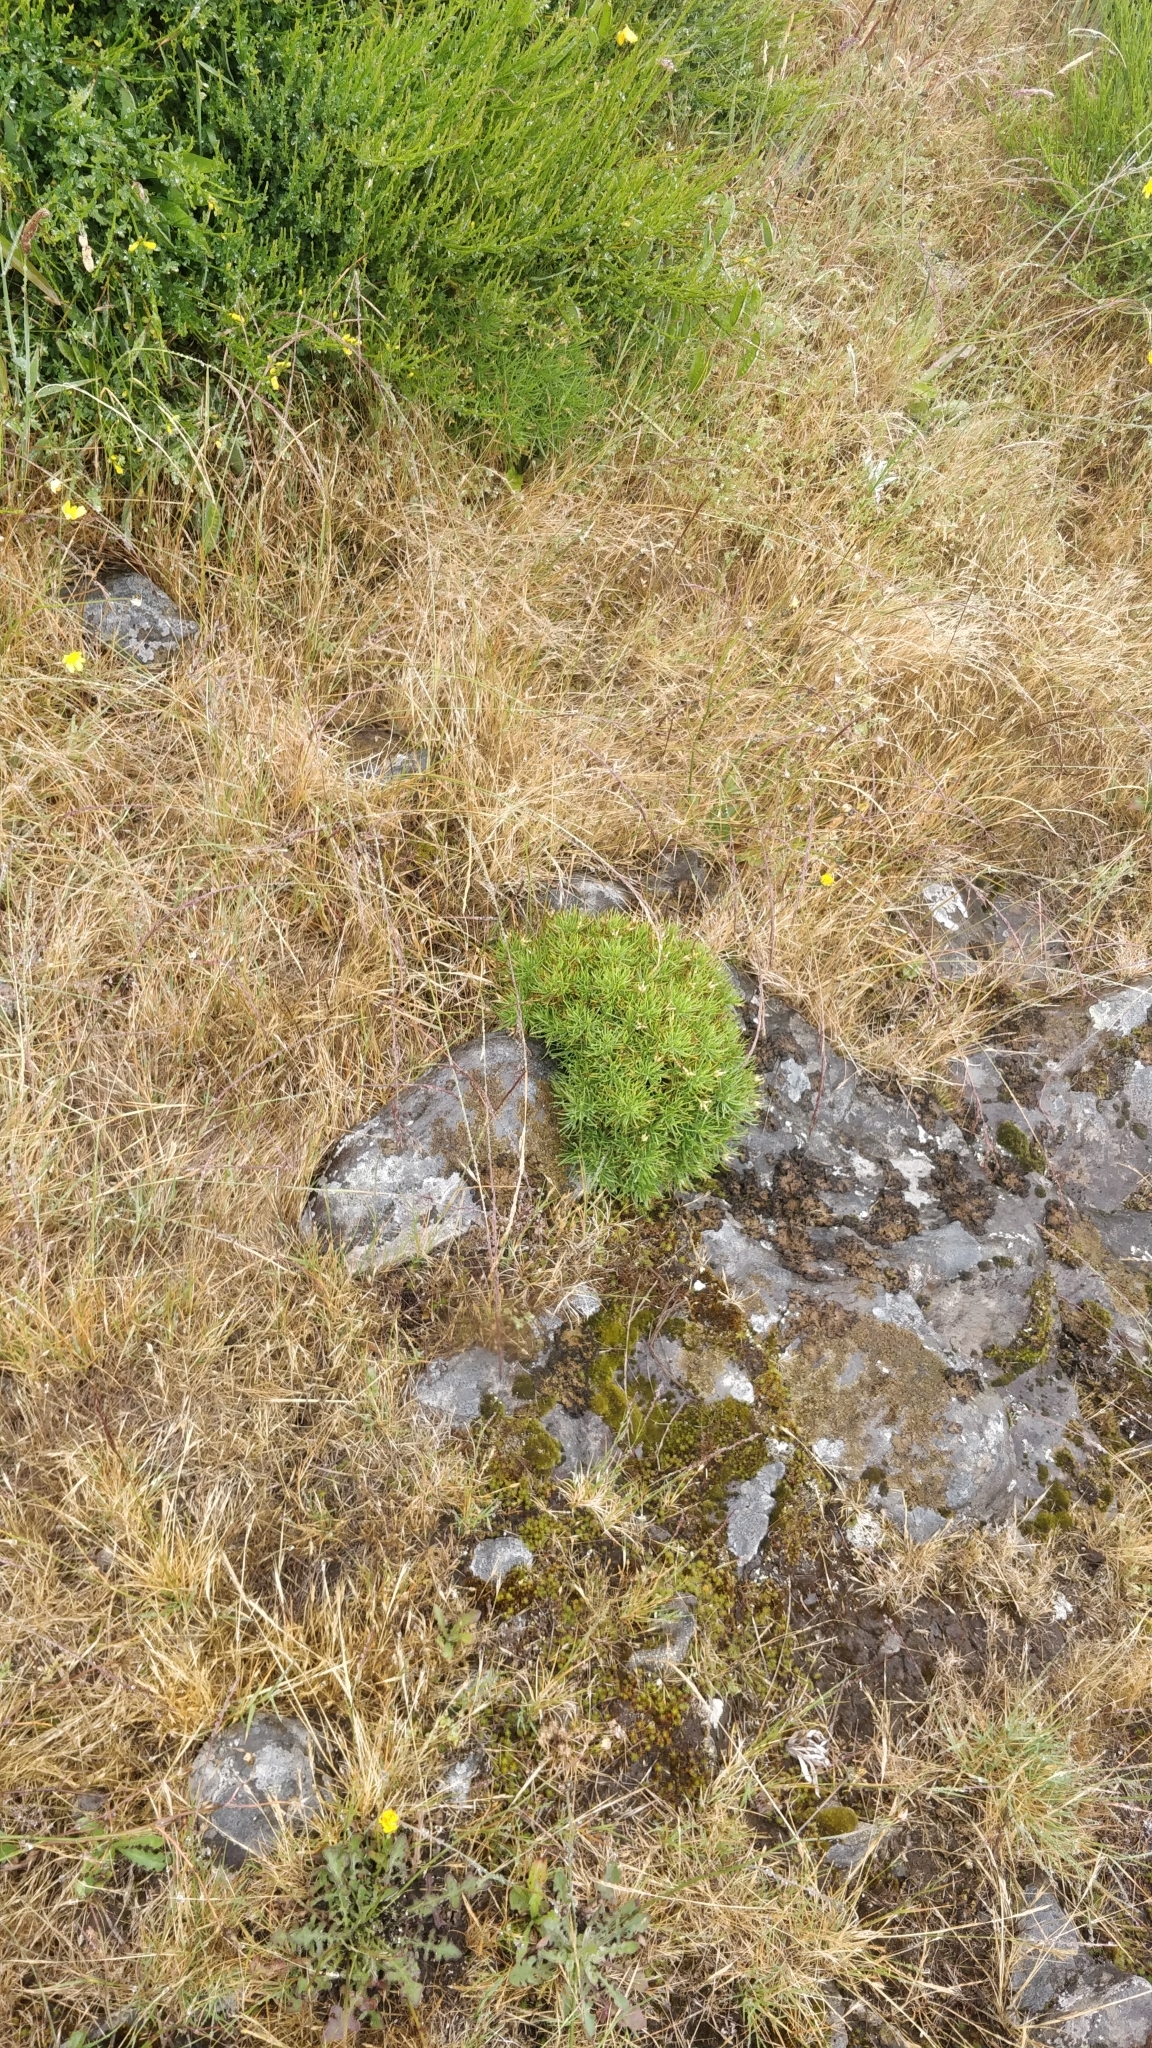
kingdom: Plantae
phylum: Tracheophyta
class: Magnoliopsida
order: Lamiales
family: Plantaginaceae
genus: Plantago
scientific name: Plantago arborescens
